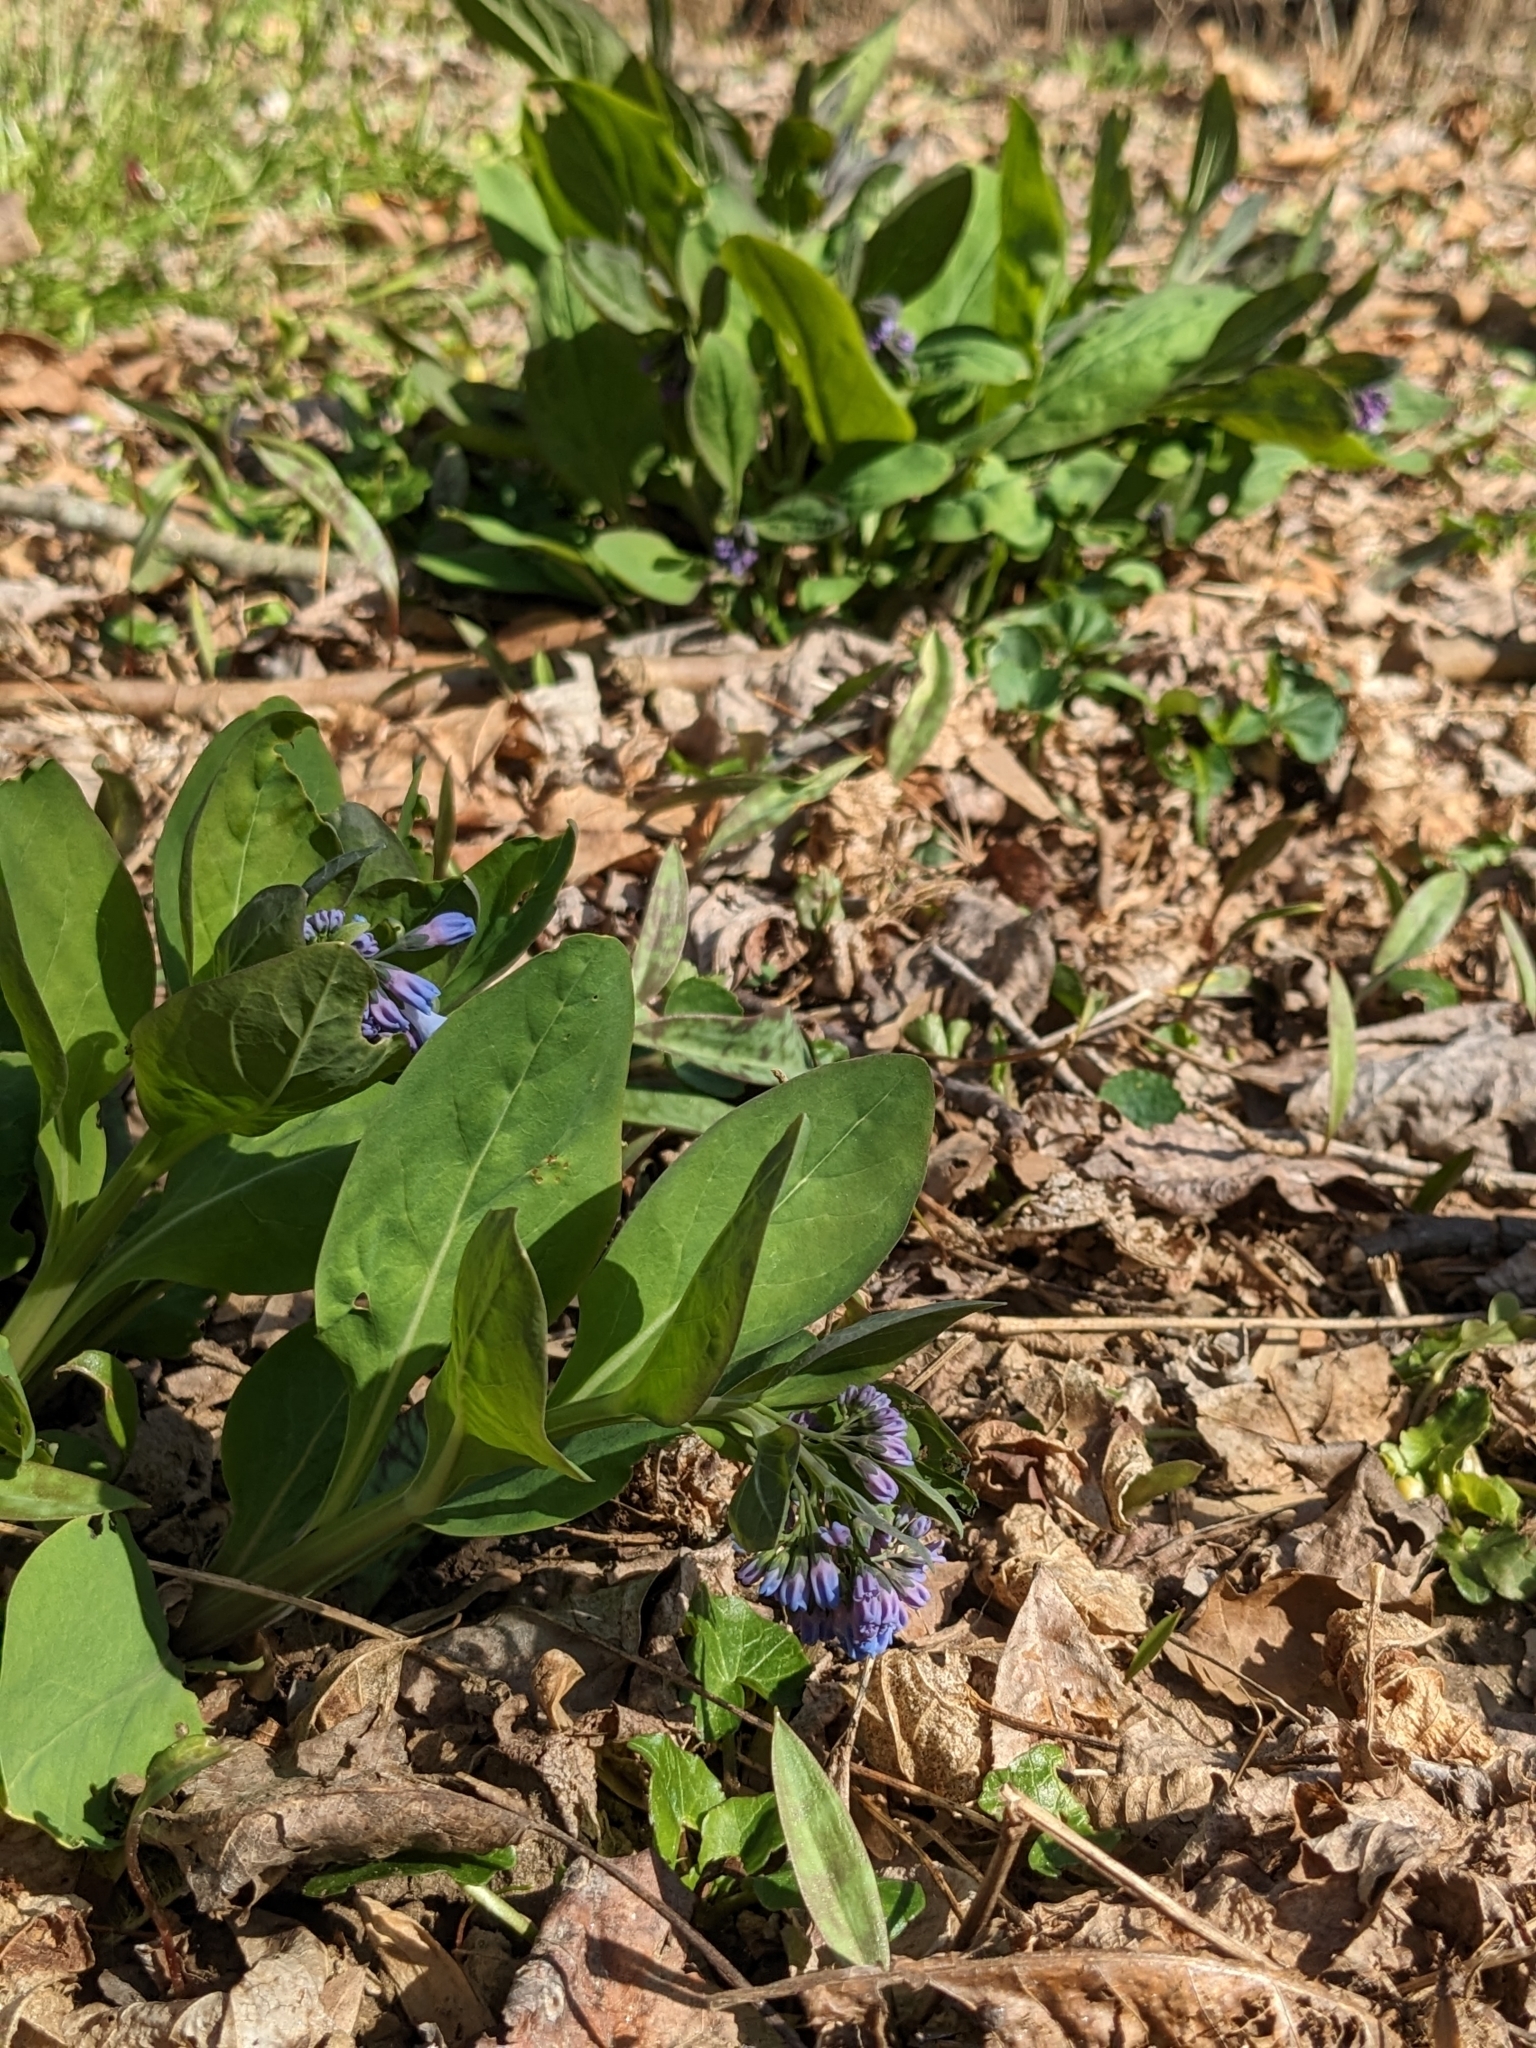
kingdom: Plantae
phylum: Tracheophyta
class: Magnoliopsida
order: Boraginales
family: Boraginaceae
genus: Mertensia
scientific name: Mertensia virginica
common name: Virginia bluebells
